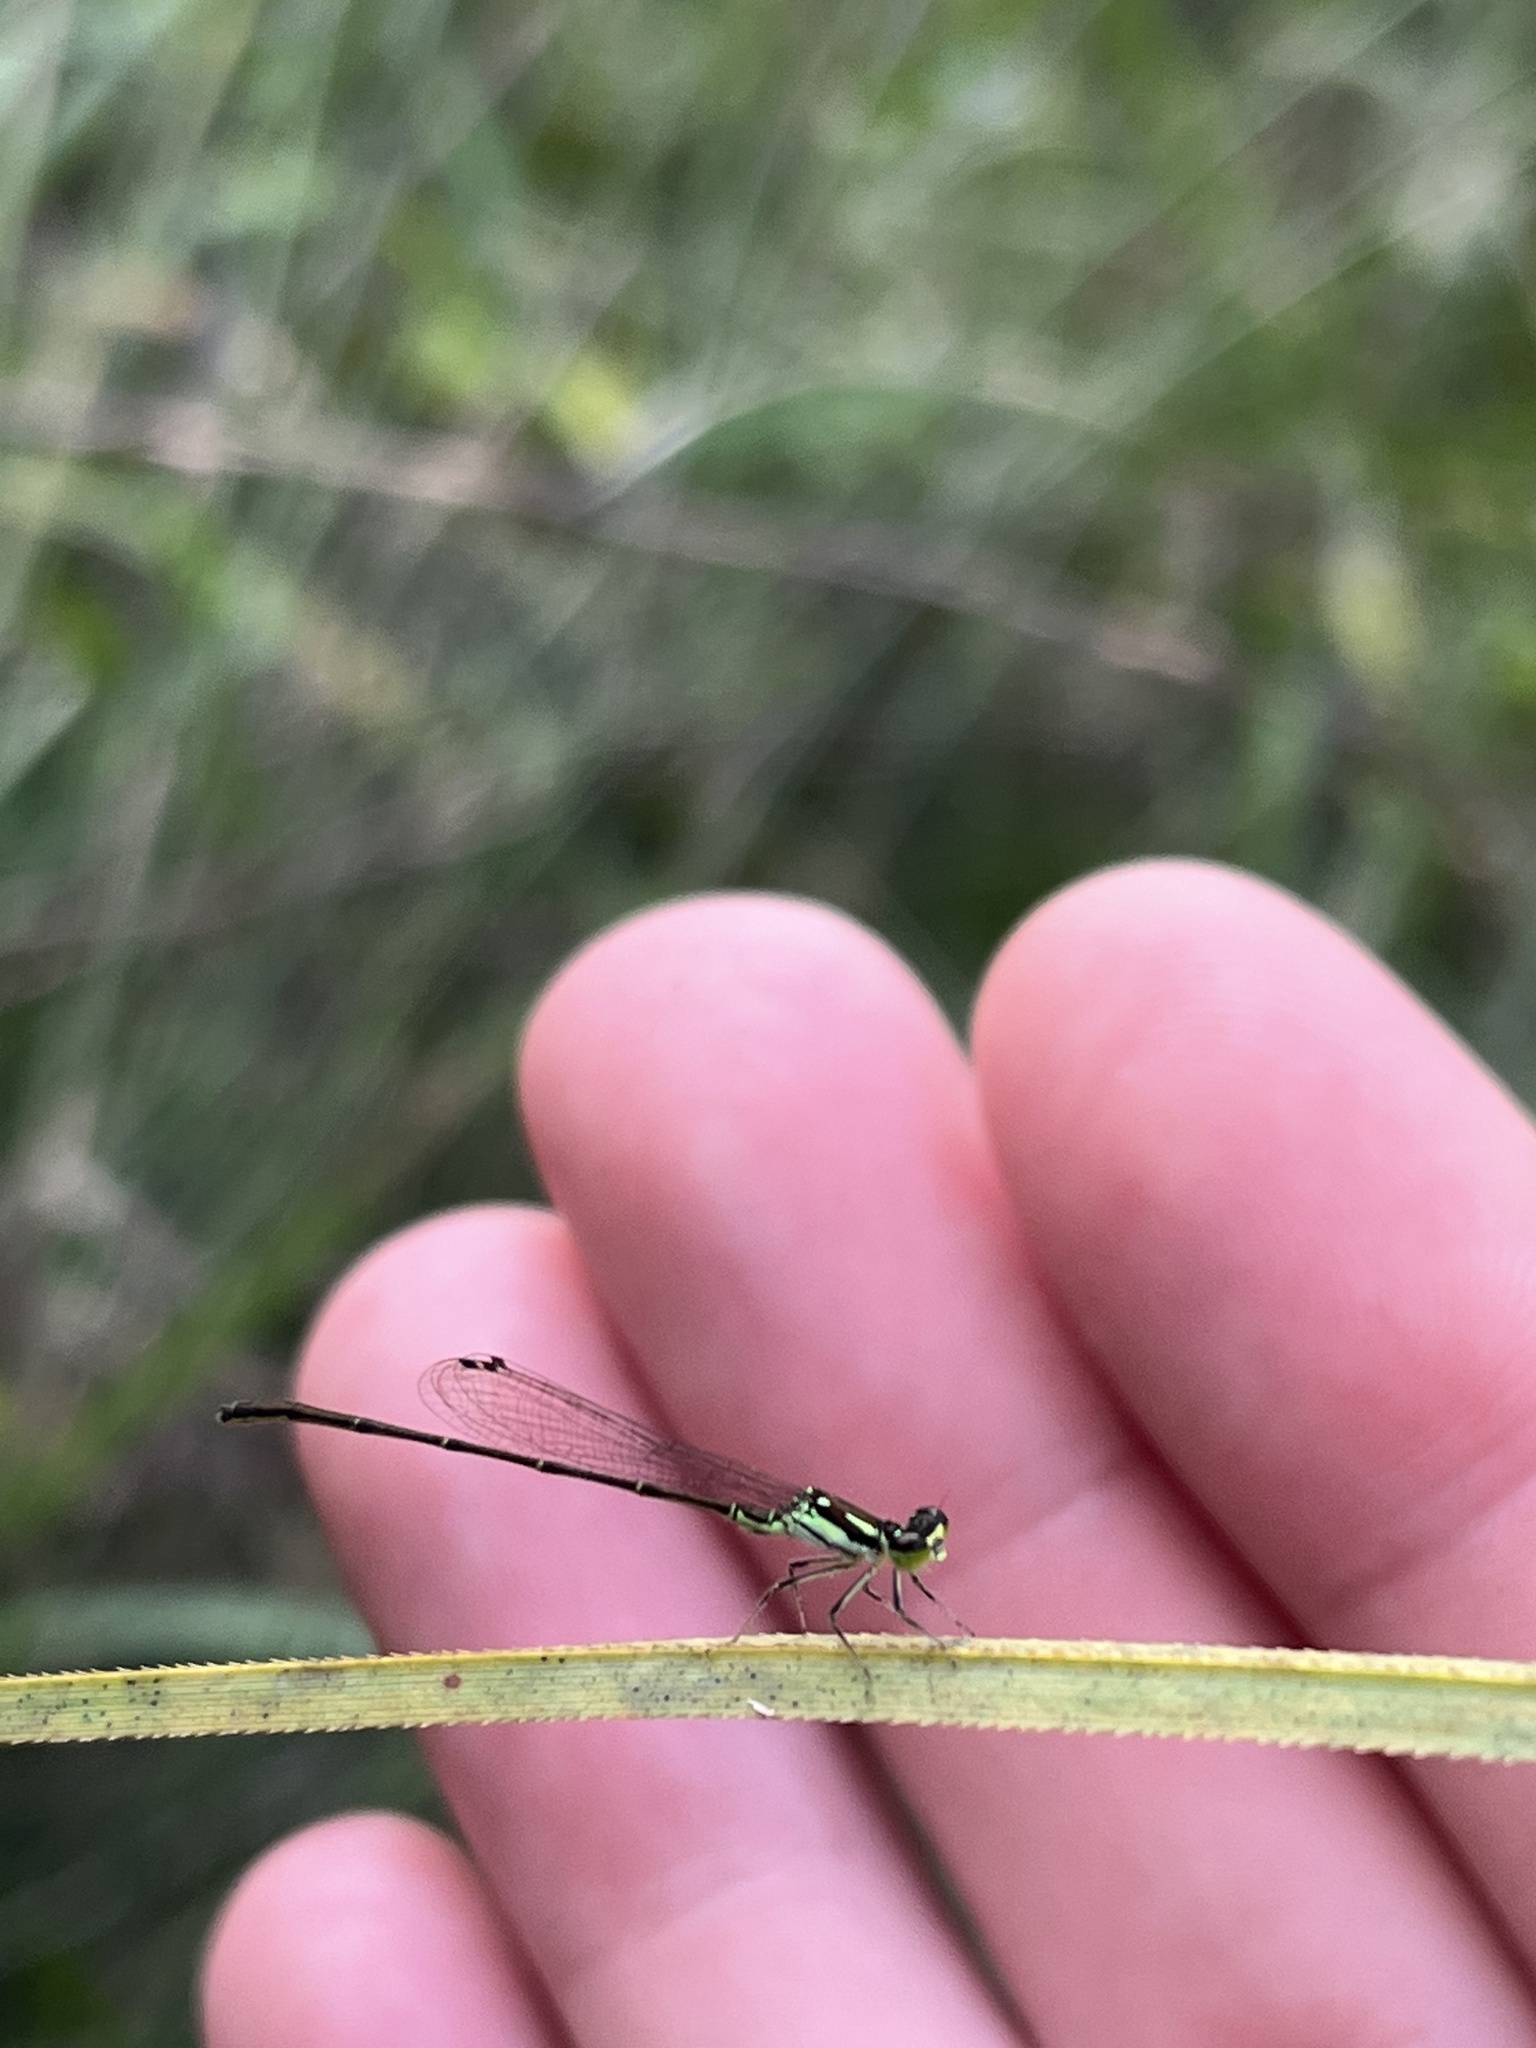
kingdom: Animalia
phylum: Arthropoda
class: Insecta
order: Odonata
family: Coenagrionidae
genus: Ischnura
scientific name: Ischnura posita
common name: Fragile forktail
